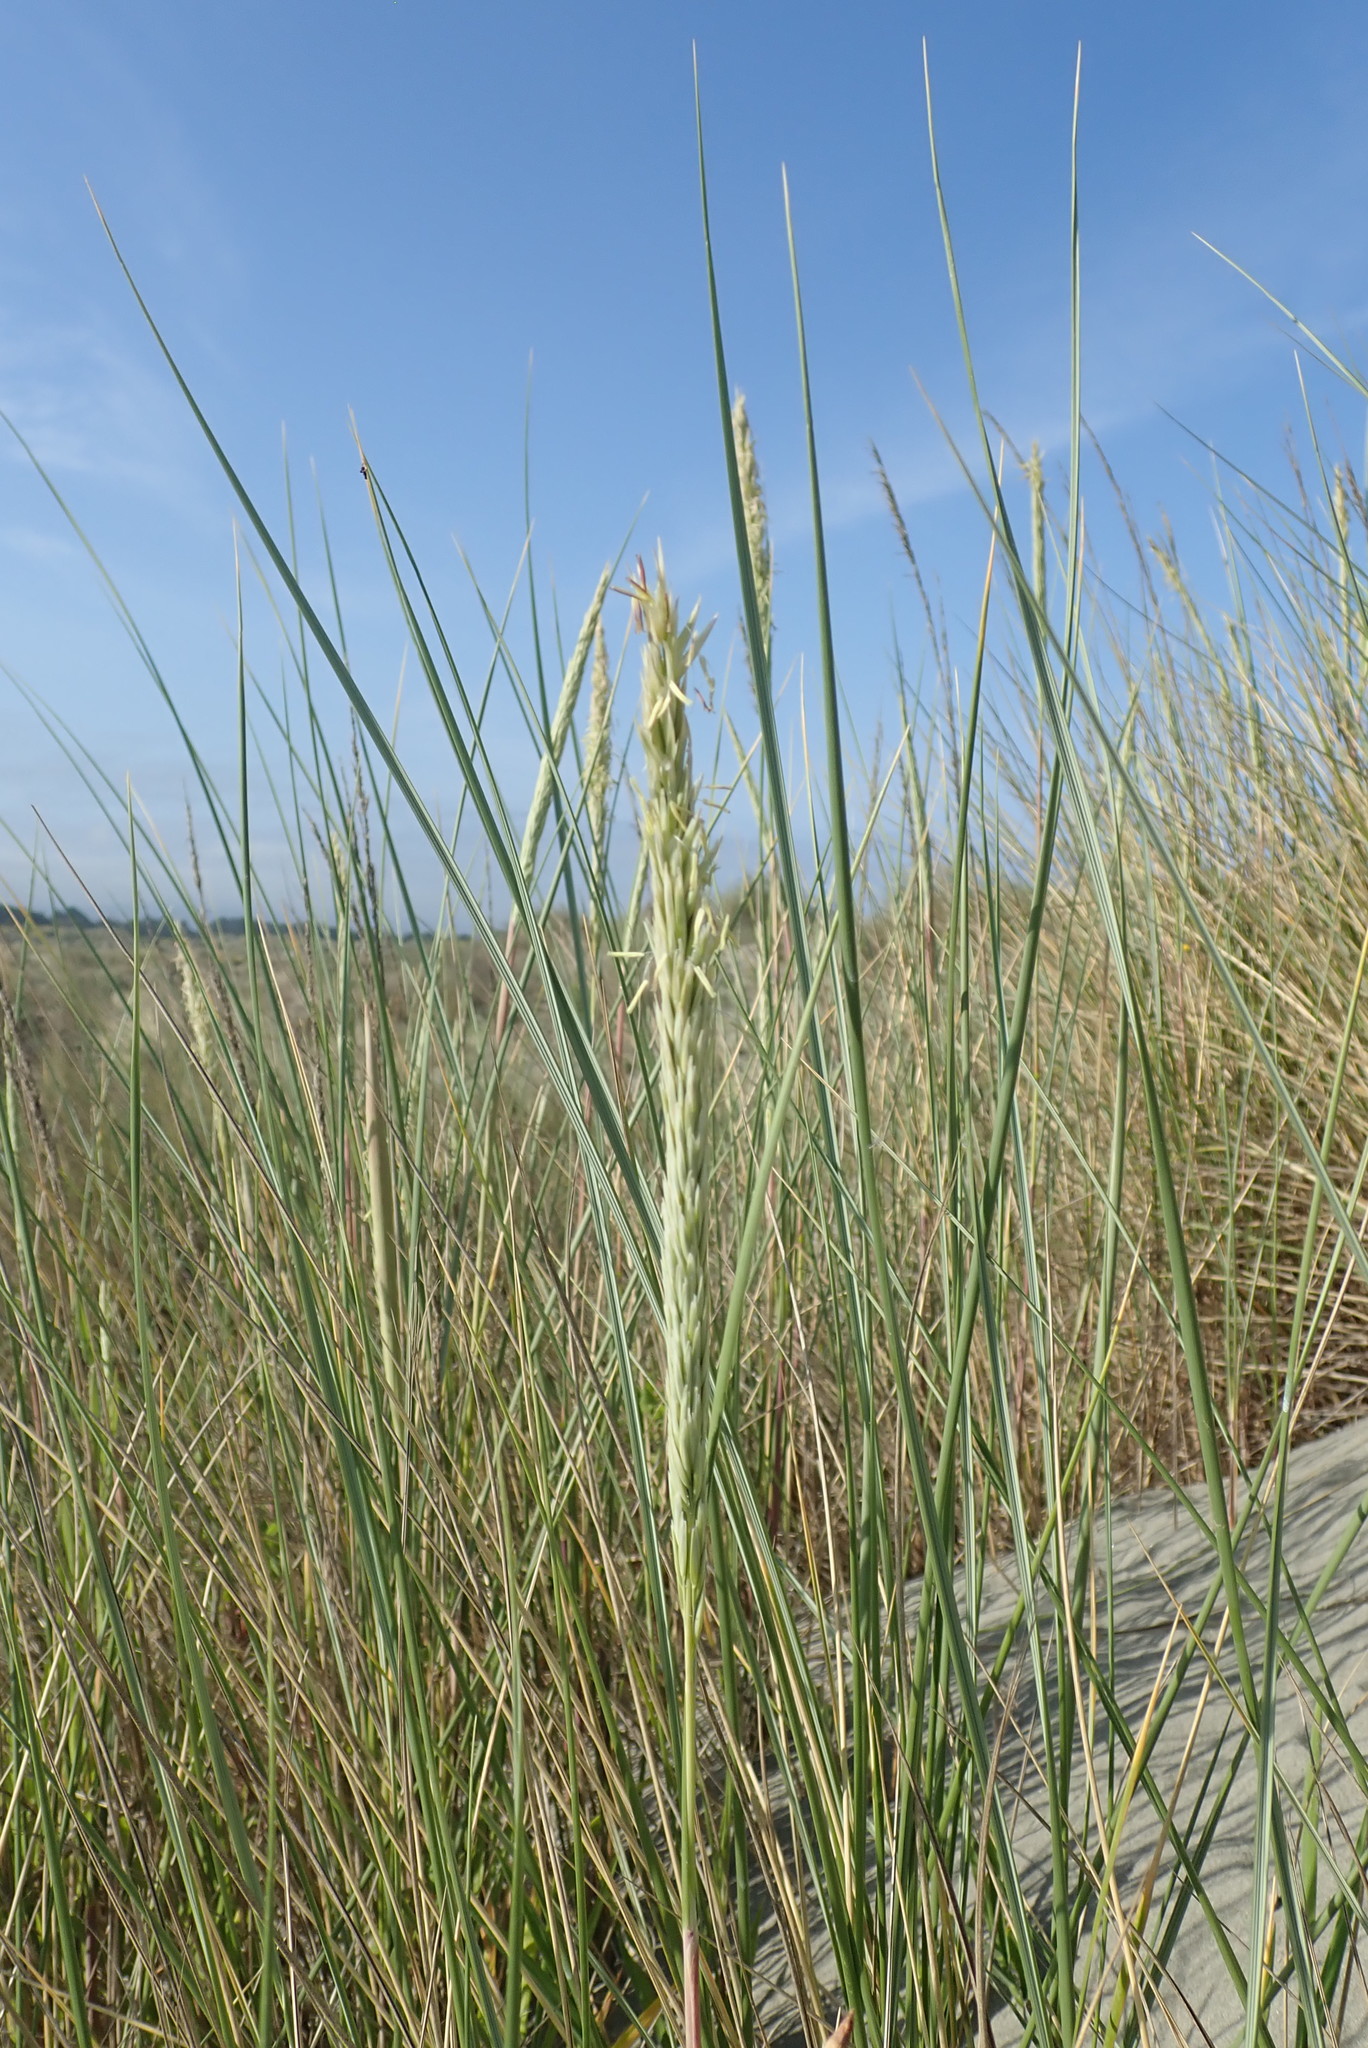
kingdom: Plantae
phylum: Tracheophyta
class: Liliopsida
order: Poales
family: Poaceae
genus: Calamagrostis
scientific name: Calamagrostis arenaria
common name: European beachgrass
